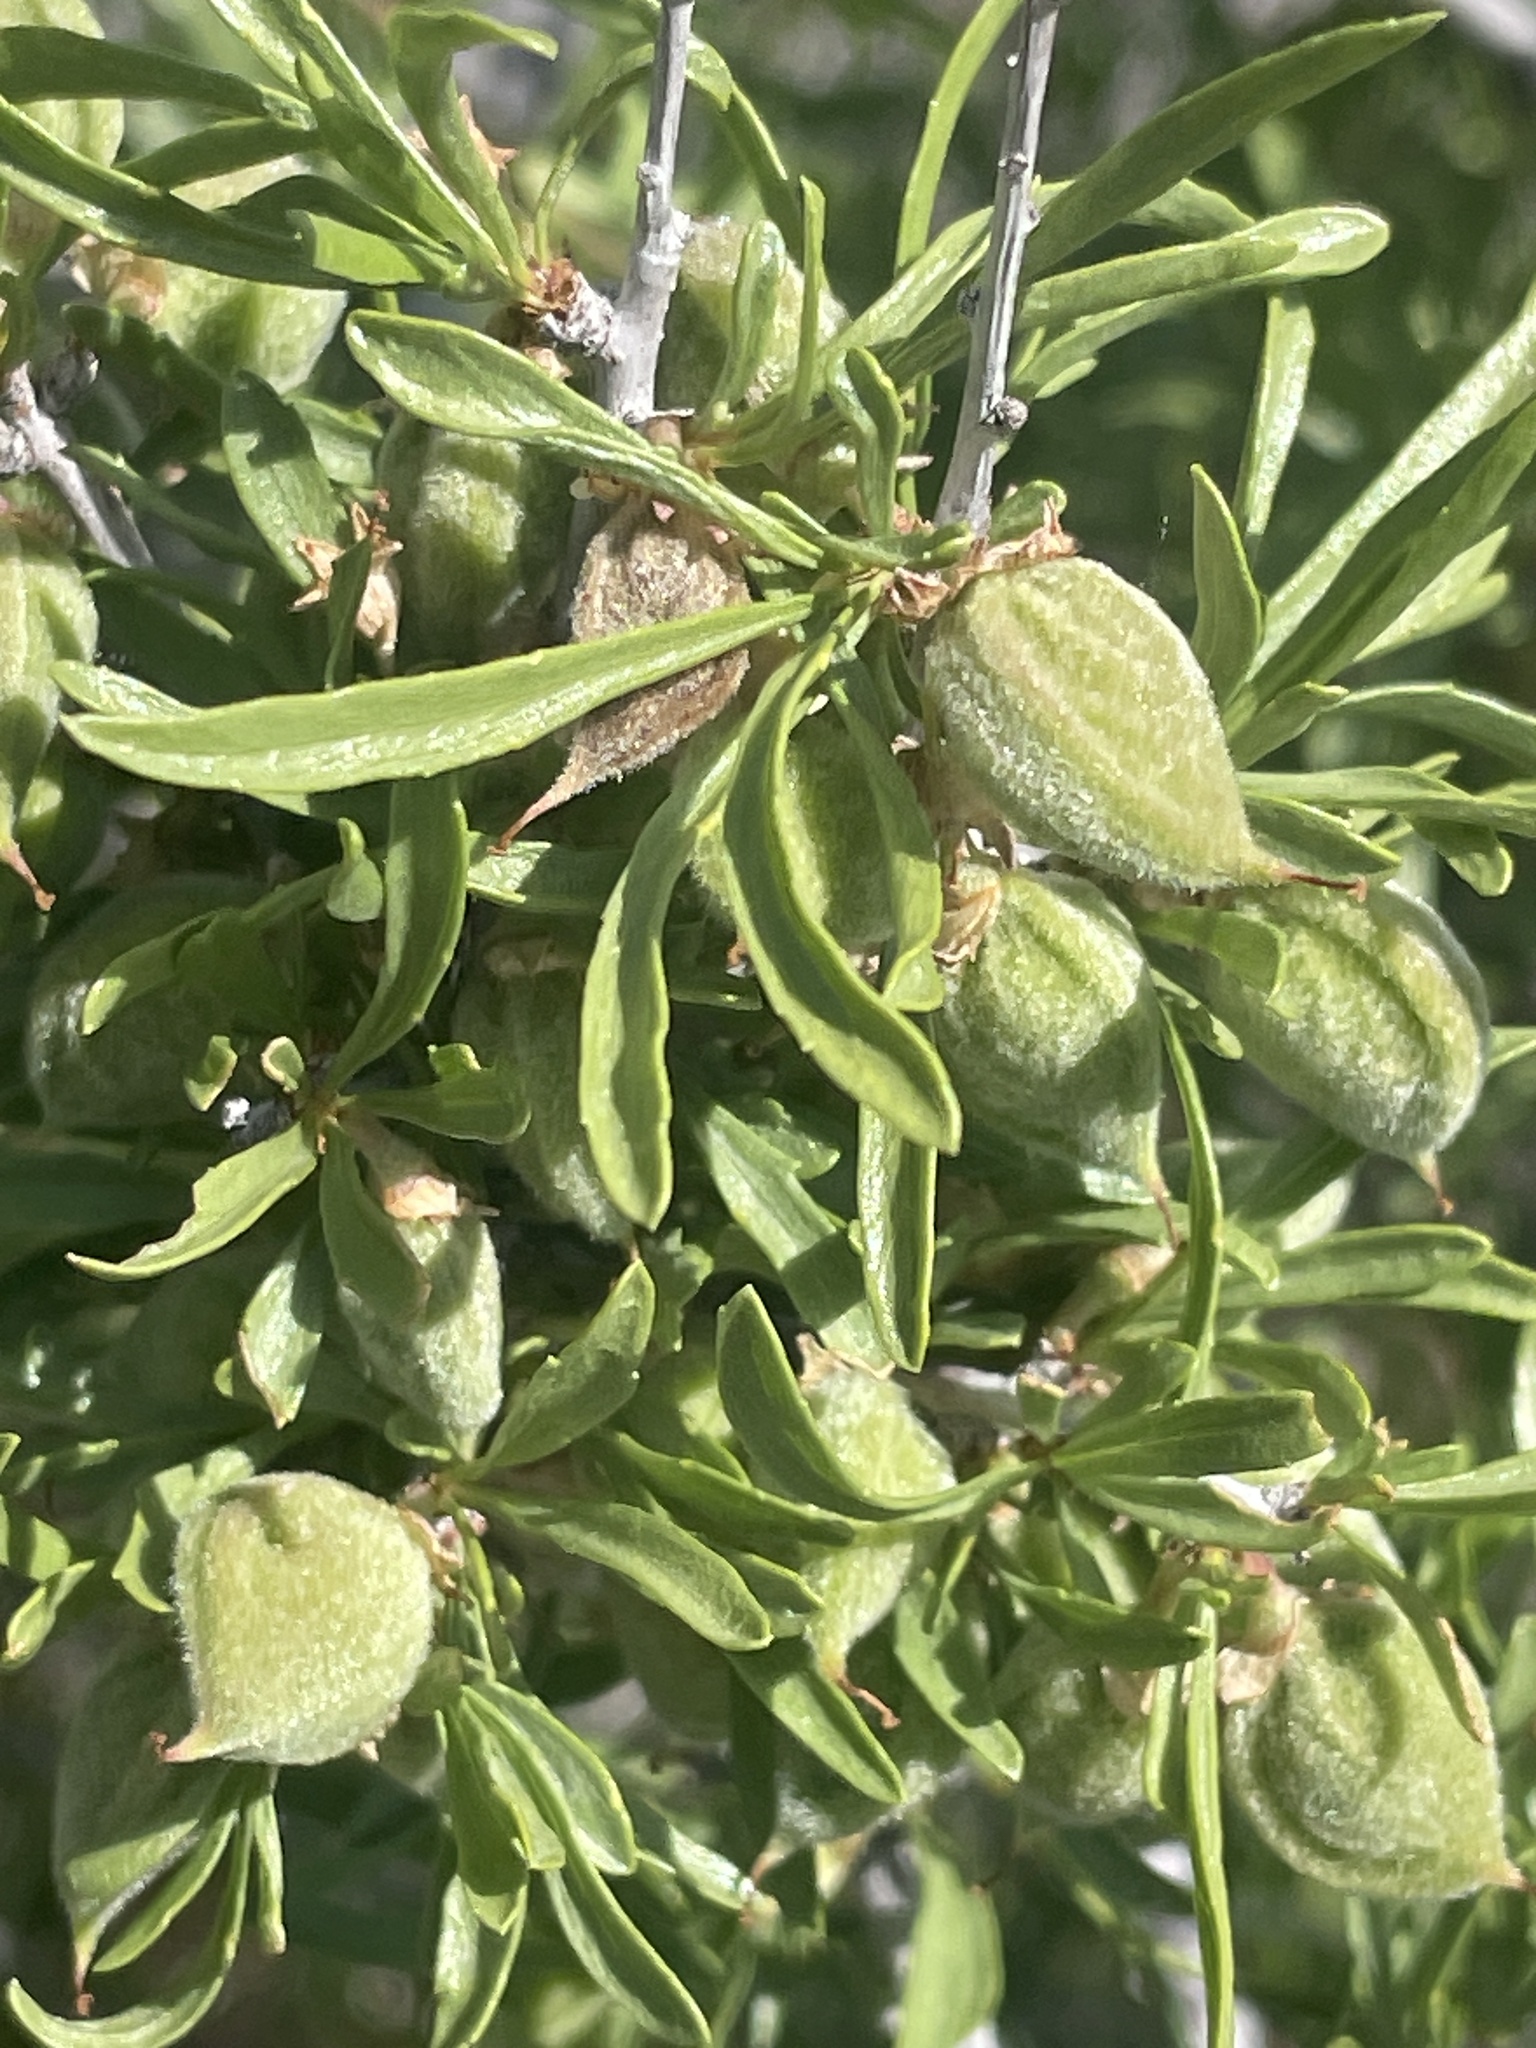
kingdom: Plantae
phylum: Tracheophyta
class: Magnoliopsida
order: Rosales
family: Rosaceae
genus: Prunus
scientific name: Prunus fasciculata
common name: Desert almond
